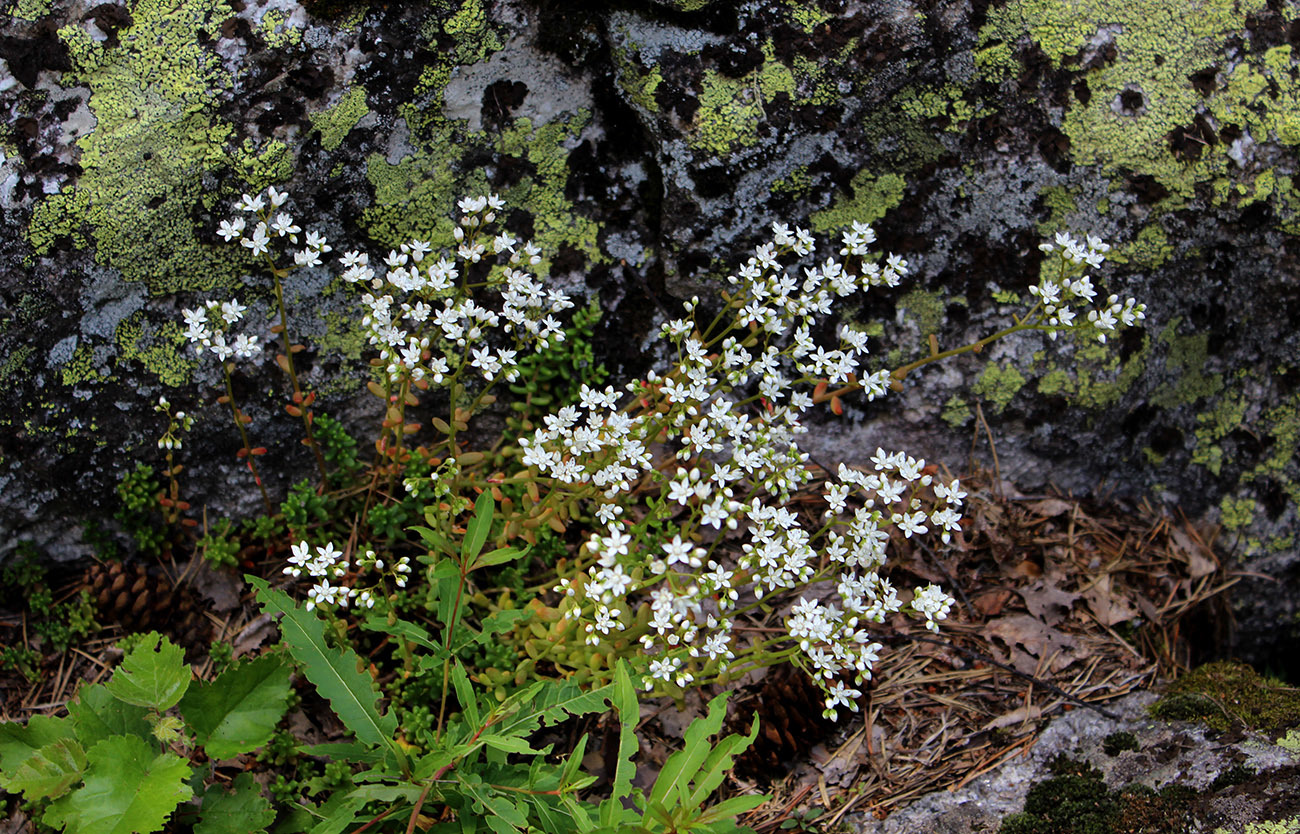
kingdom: Plantae
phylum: Tracheophyta
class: Magnoliopsida
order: Saxifragales
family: Crassulaceae
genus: Sedum
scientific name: Sedum album
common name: White stonecrop
